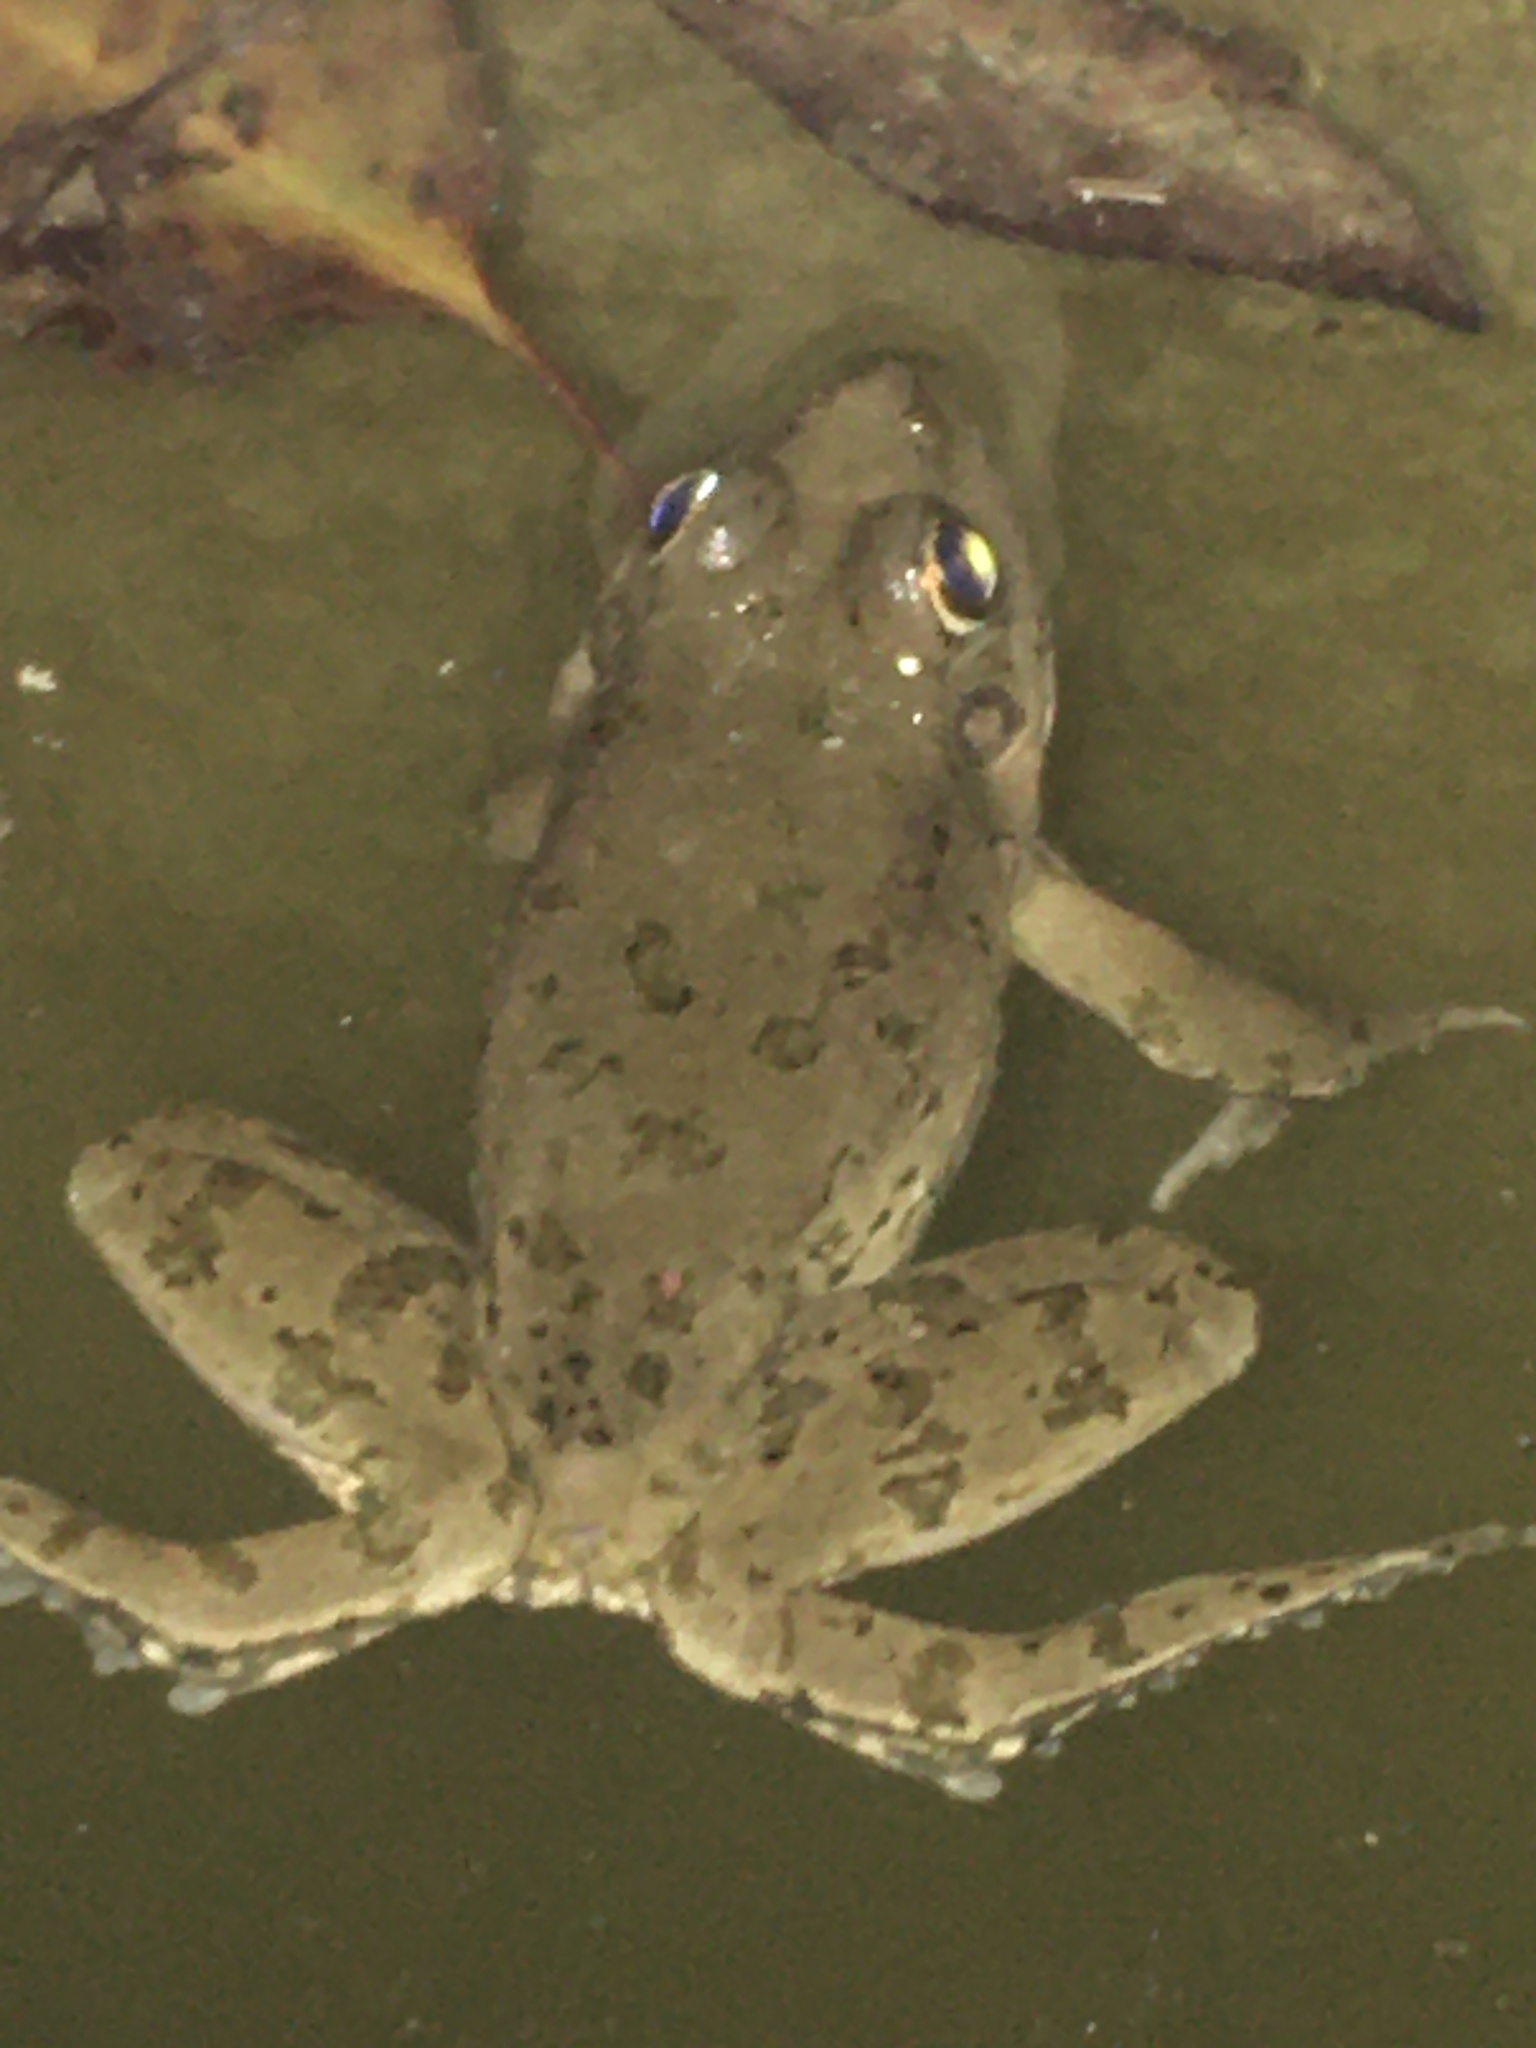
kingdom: Animalia
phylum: Chordata
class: Amphibia
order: Anura
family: Ranidae
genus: Pelophylax
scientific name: Pelophylax ridibundus
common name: Marsh frog
